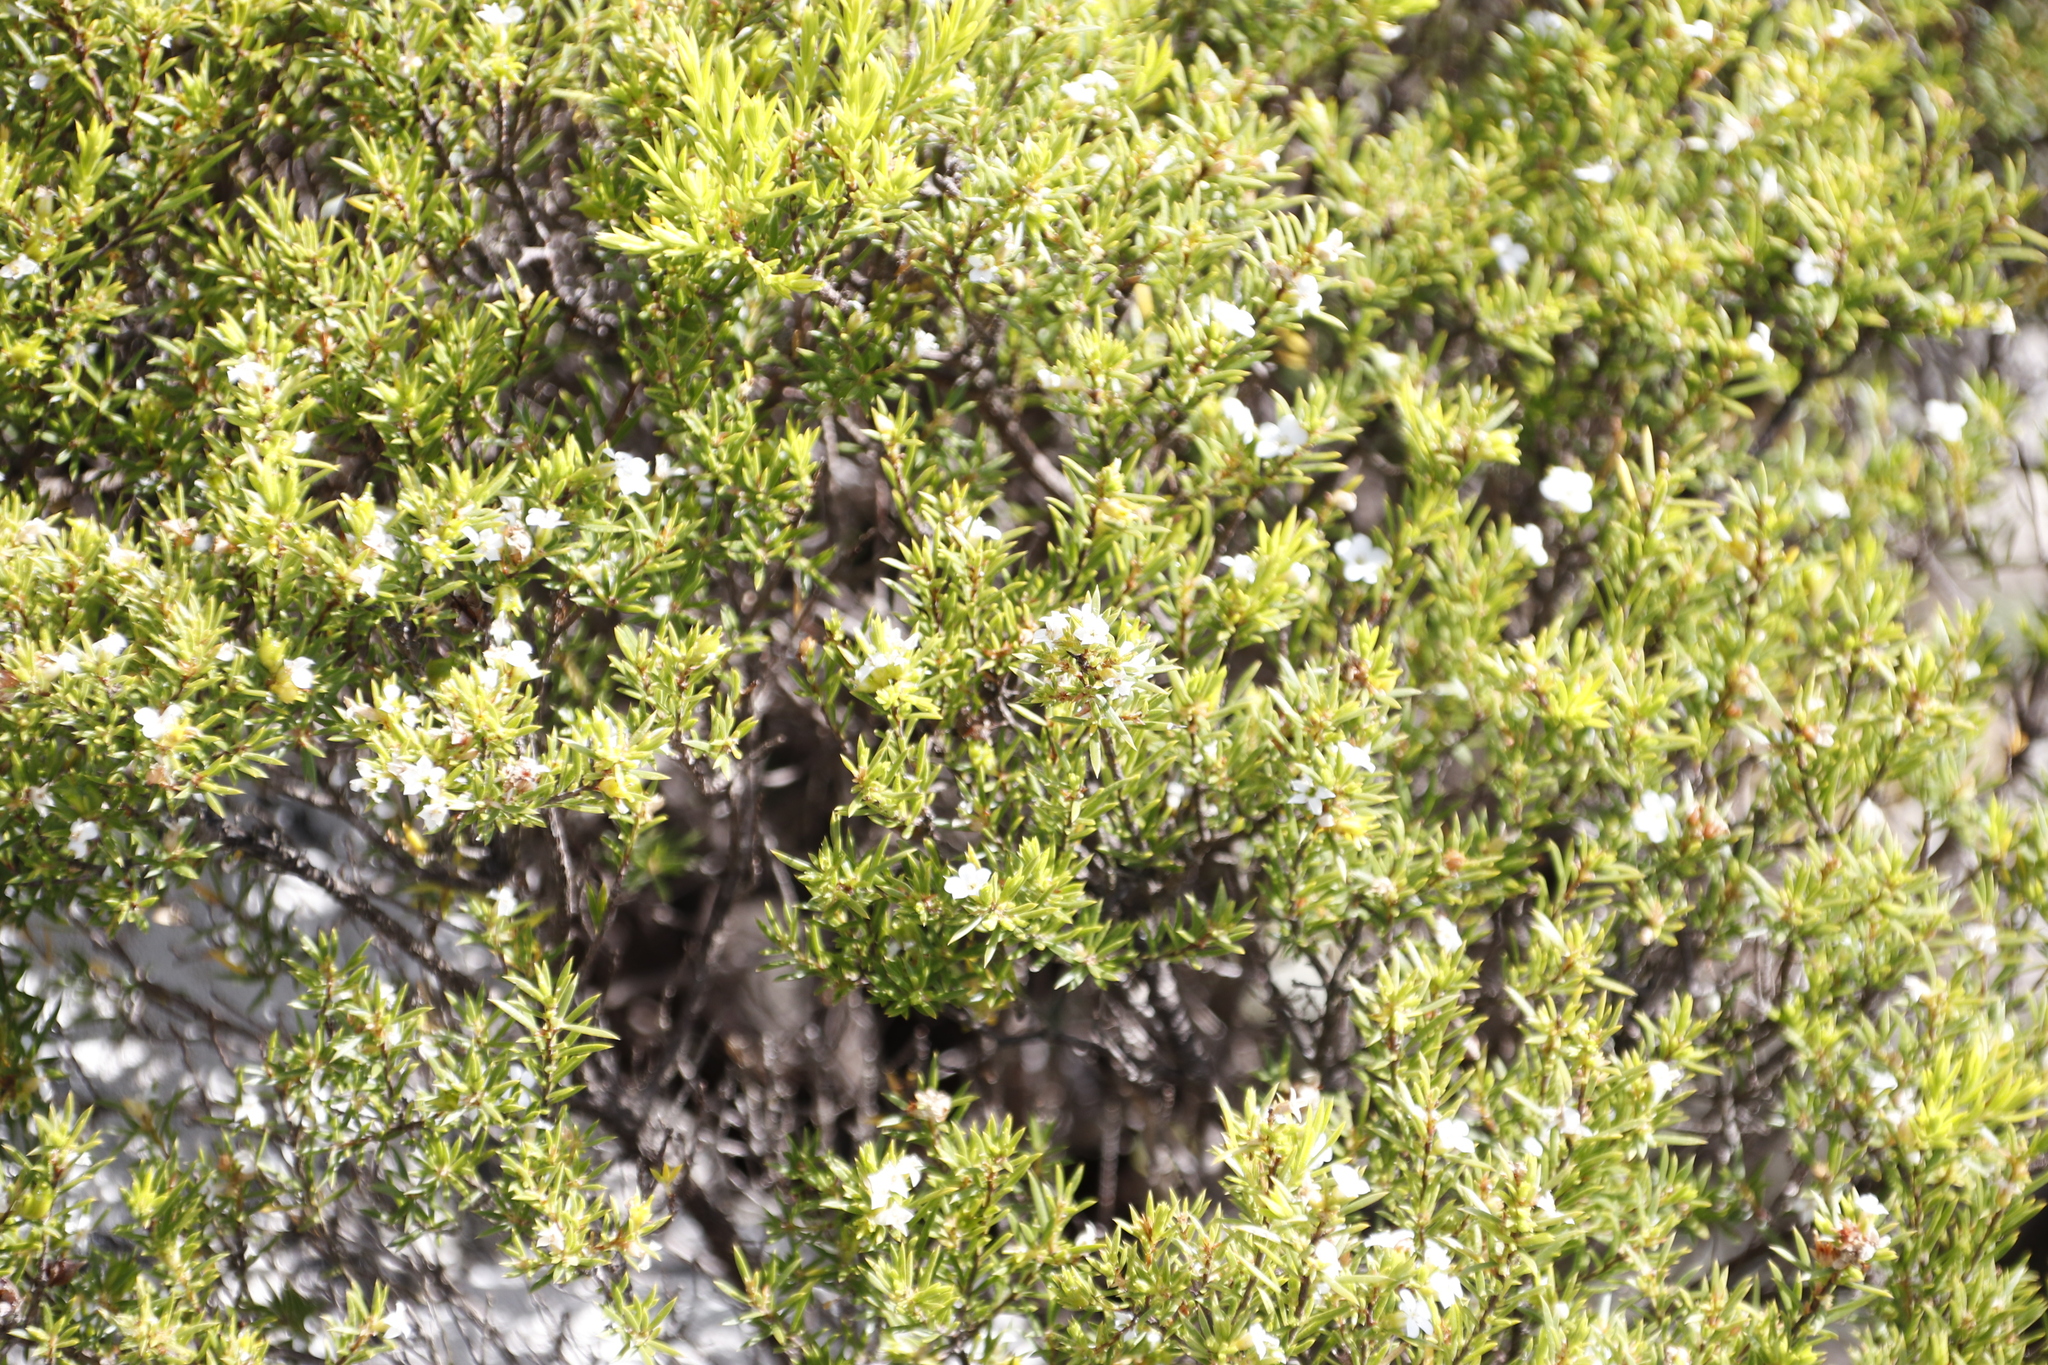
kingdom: Plantae
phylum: Tracheophyta
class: Magnoliopsida
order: Sapindales
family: Rutaceae
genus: Coleonema
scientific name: Coleonema album
